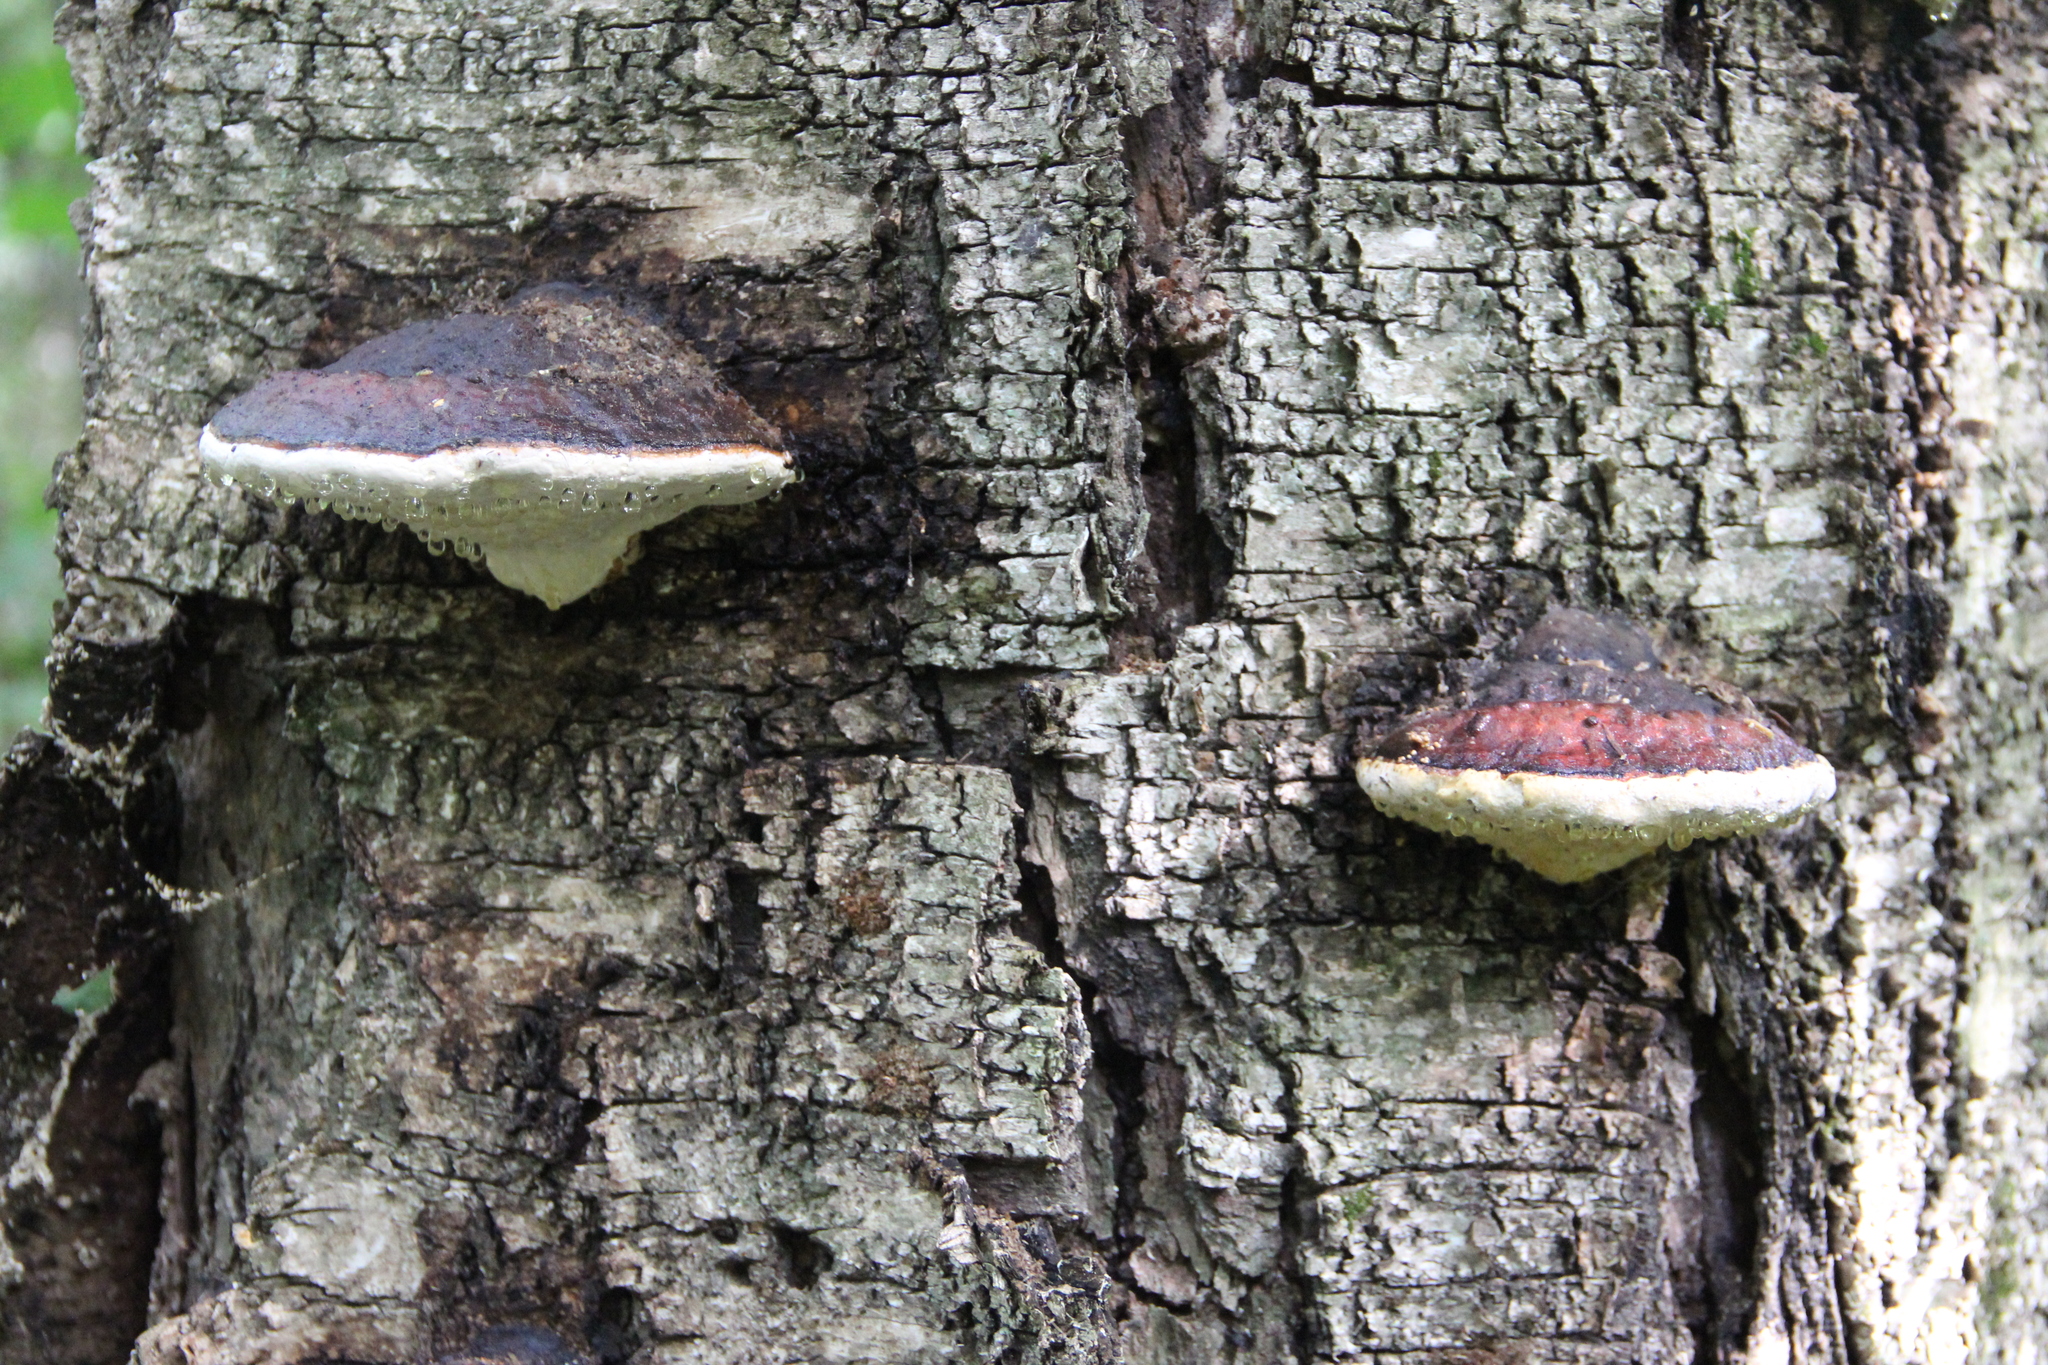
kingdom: Fungi
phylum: Basidiomycota
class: Agaricomycetes
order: Polyporales
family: Fomitopsidaceae
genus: Fomitopsis
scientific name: Fomitopsis pinicola
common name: Red-belted bracket
